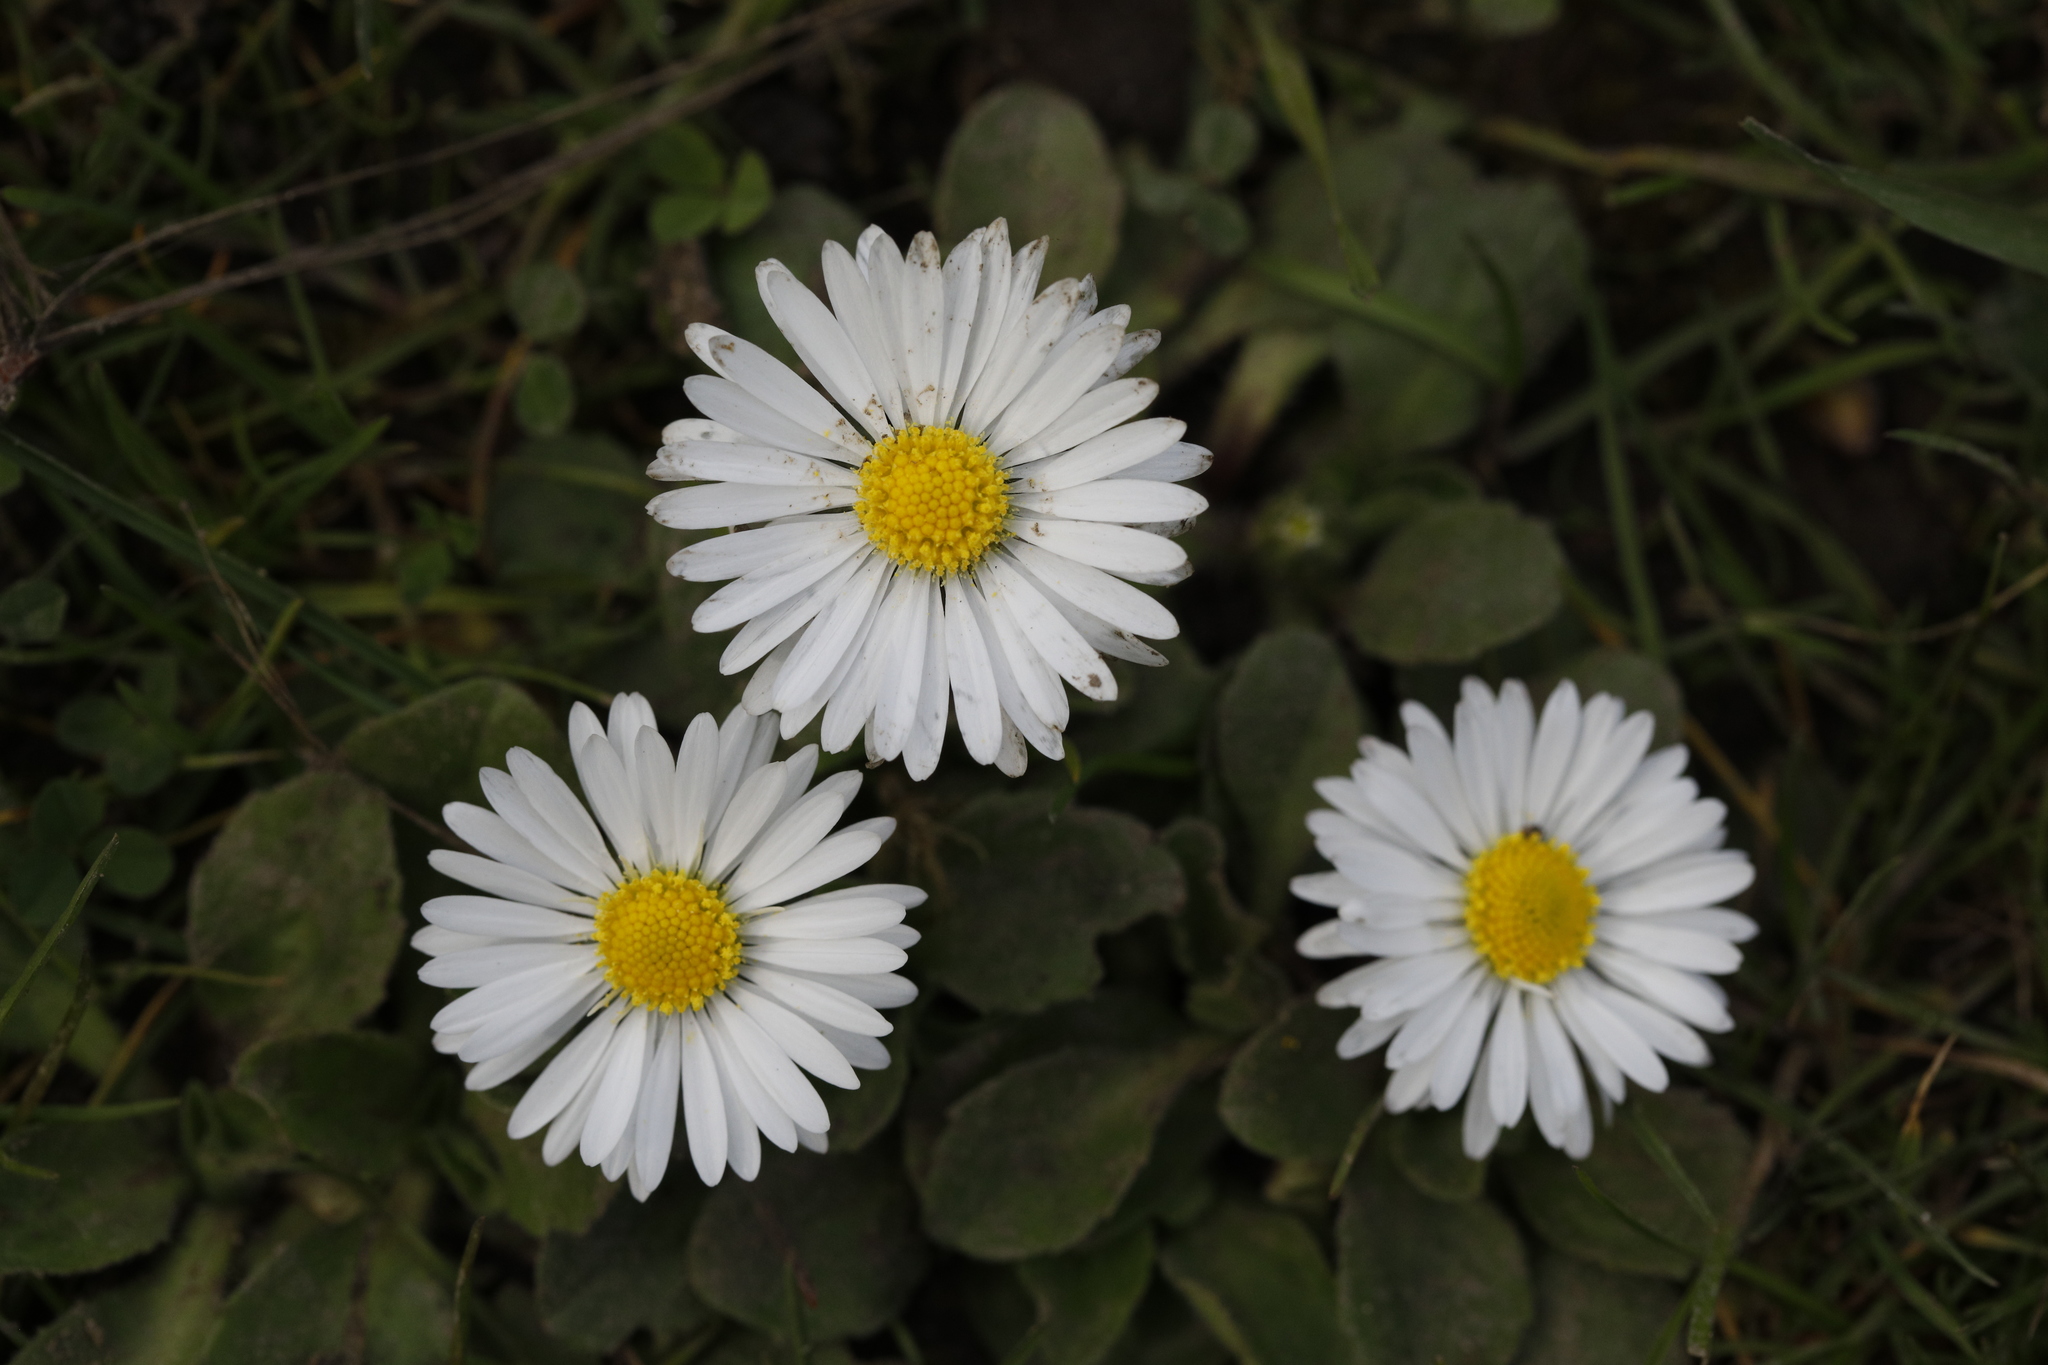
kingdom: Plantae
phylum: Tracheophyta
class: Magnoliopsida
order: Asterales
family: Asteraceae
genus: Bellis
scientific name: Bellis perennis
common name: Lawndaisy
